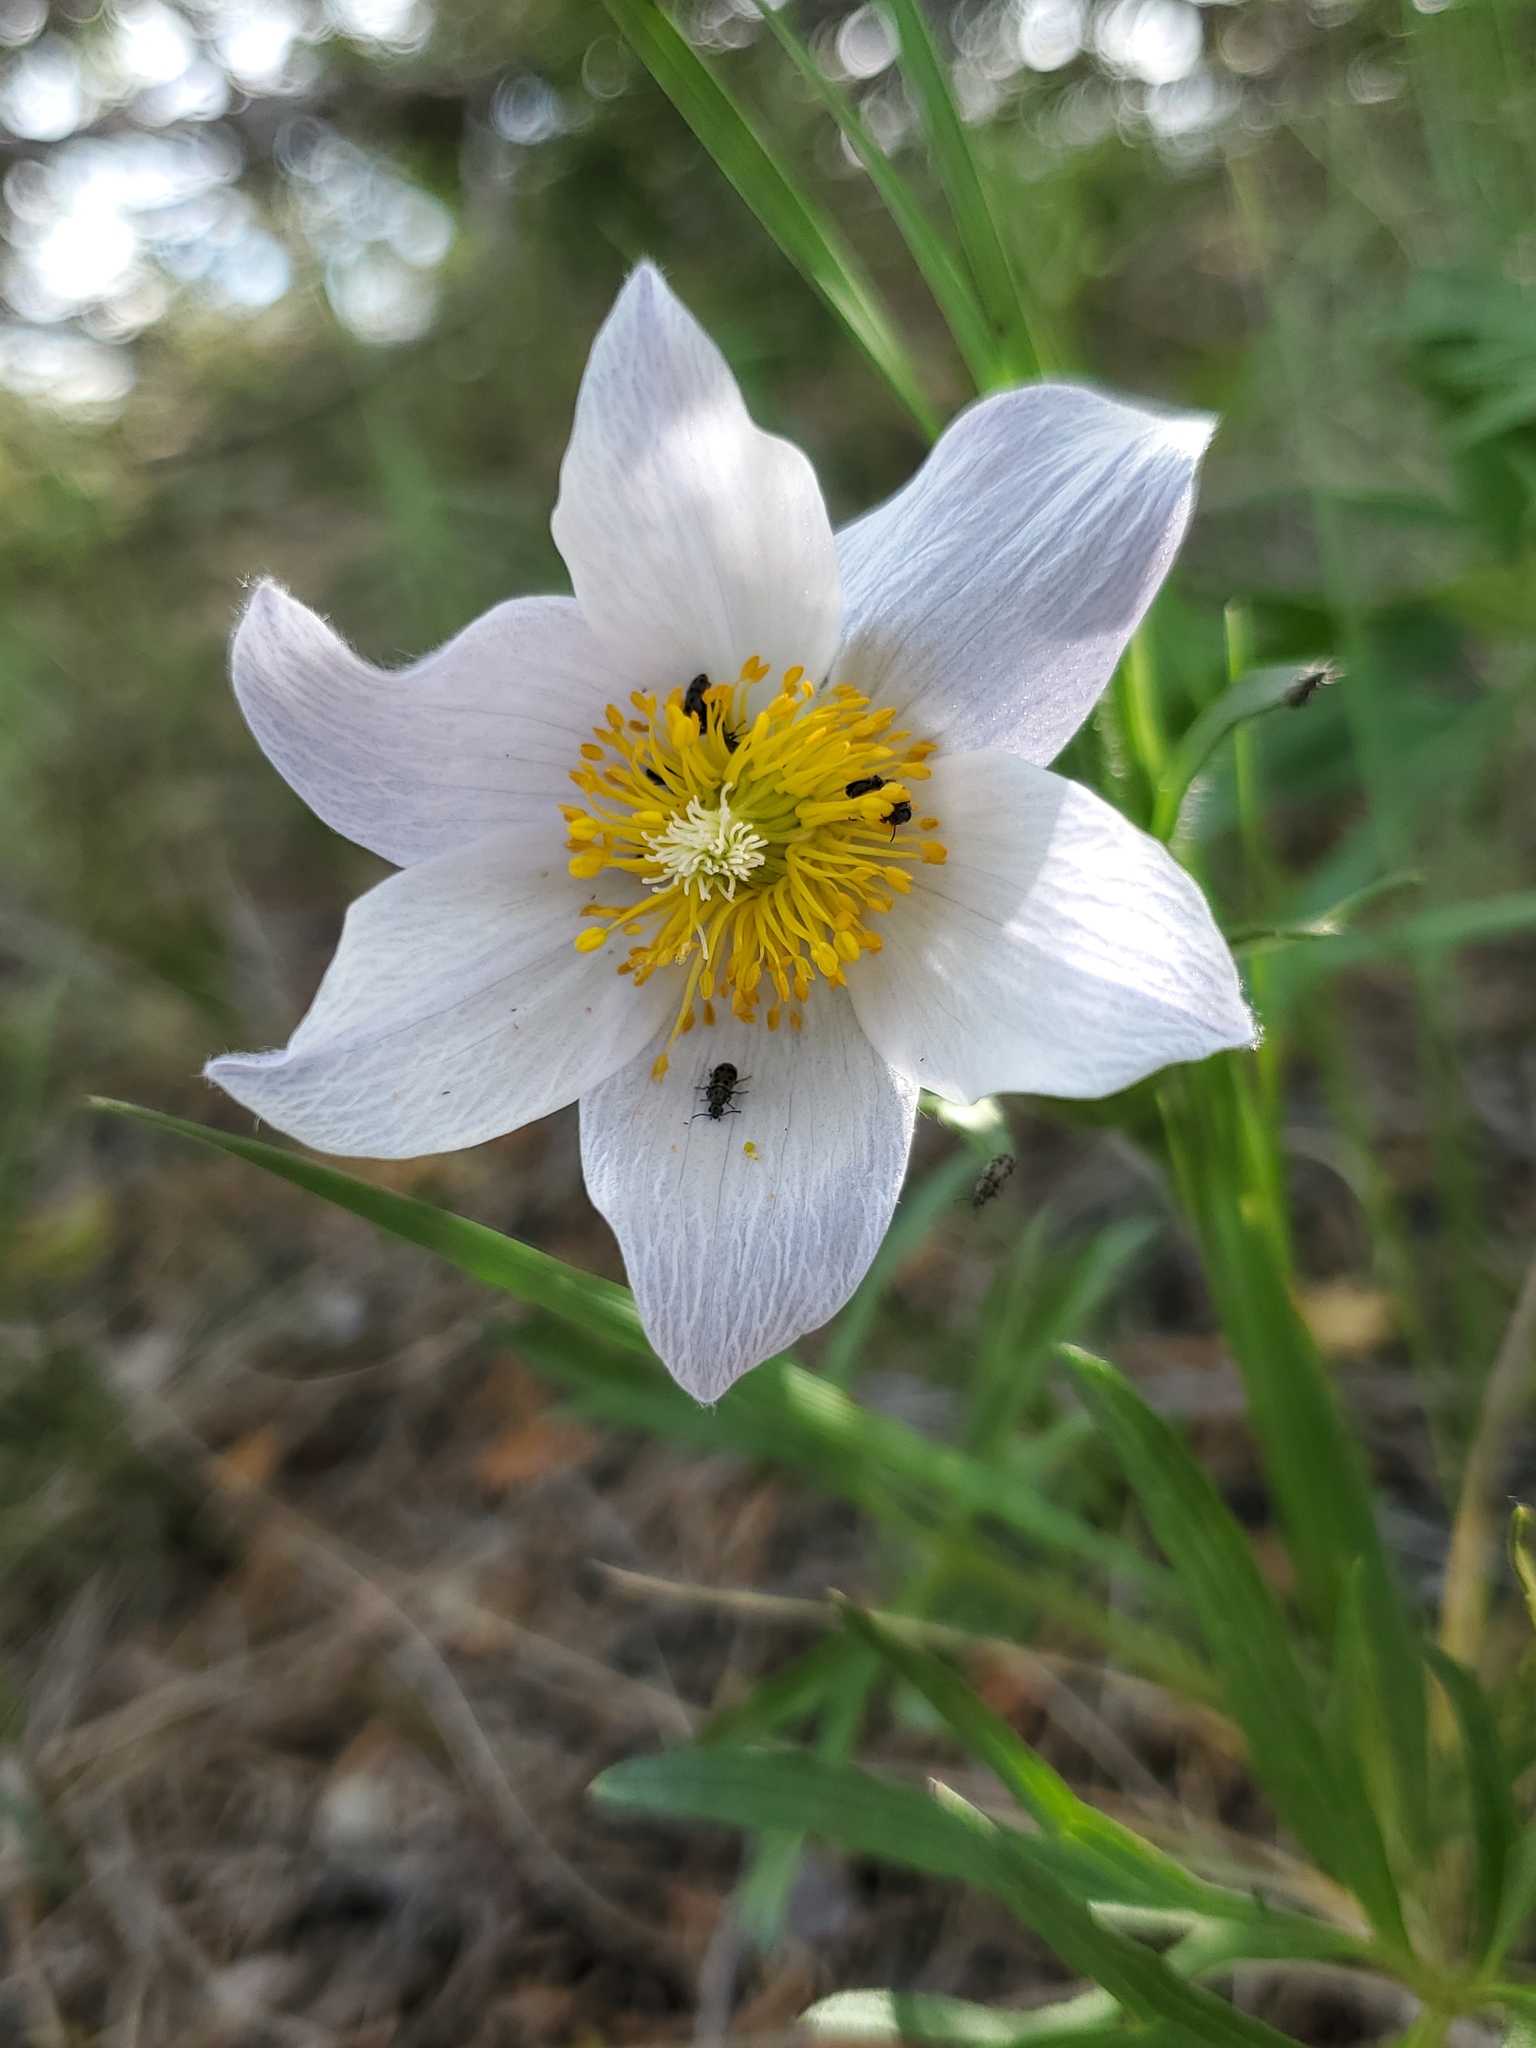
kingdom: Plantae
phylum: Tracheophyta
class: Magnoliopsida
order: Ranunculales
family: Ranunculaceae
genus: Pulsatilla
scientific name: Pulsatilla nuttalliana
